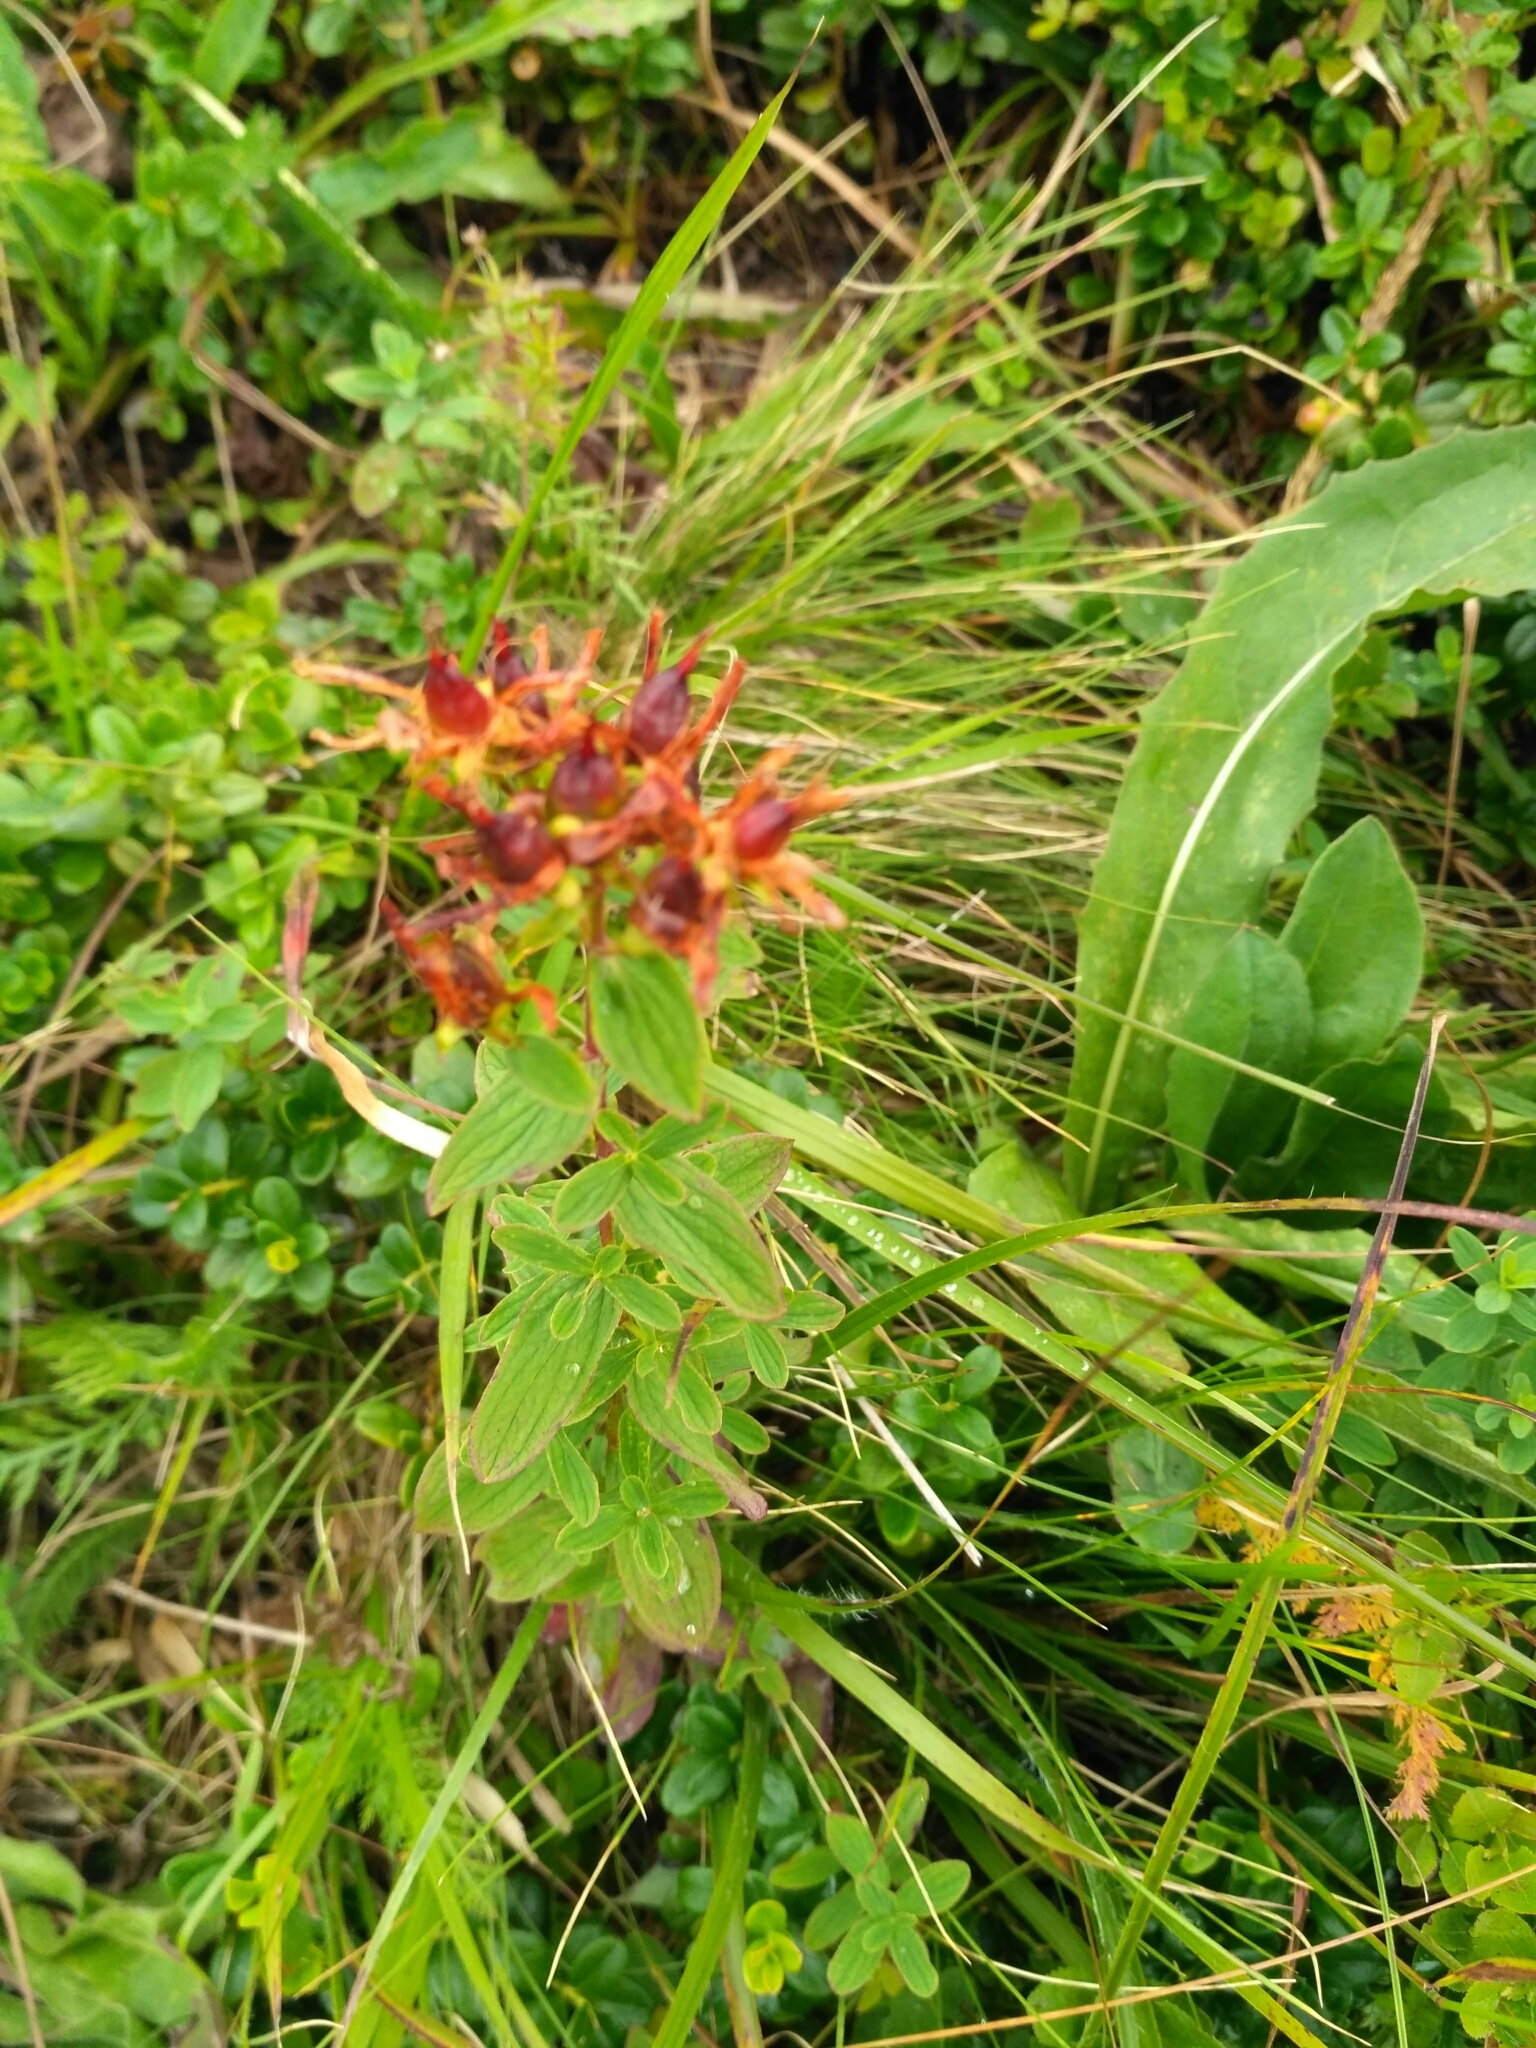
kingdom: Plantae
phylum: Tracheophyta
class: Magnoliopsida
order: Malpighiales
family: Hypericaceae
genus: Hypericum
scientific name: Hypericum maculatum
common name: Imperforate st. john's-wort
